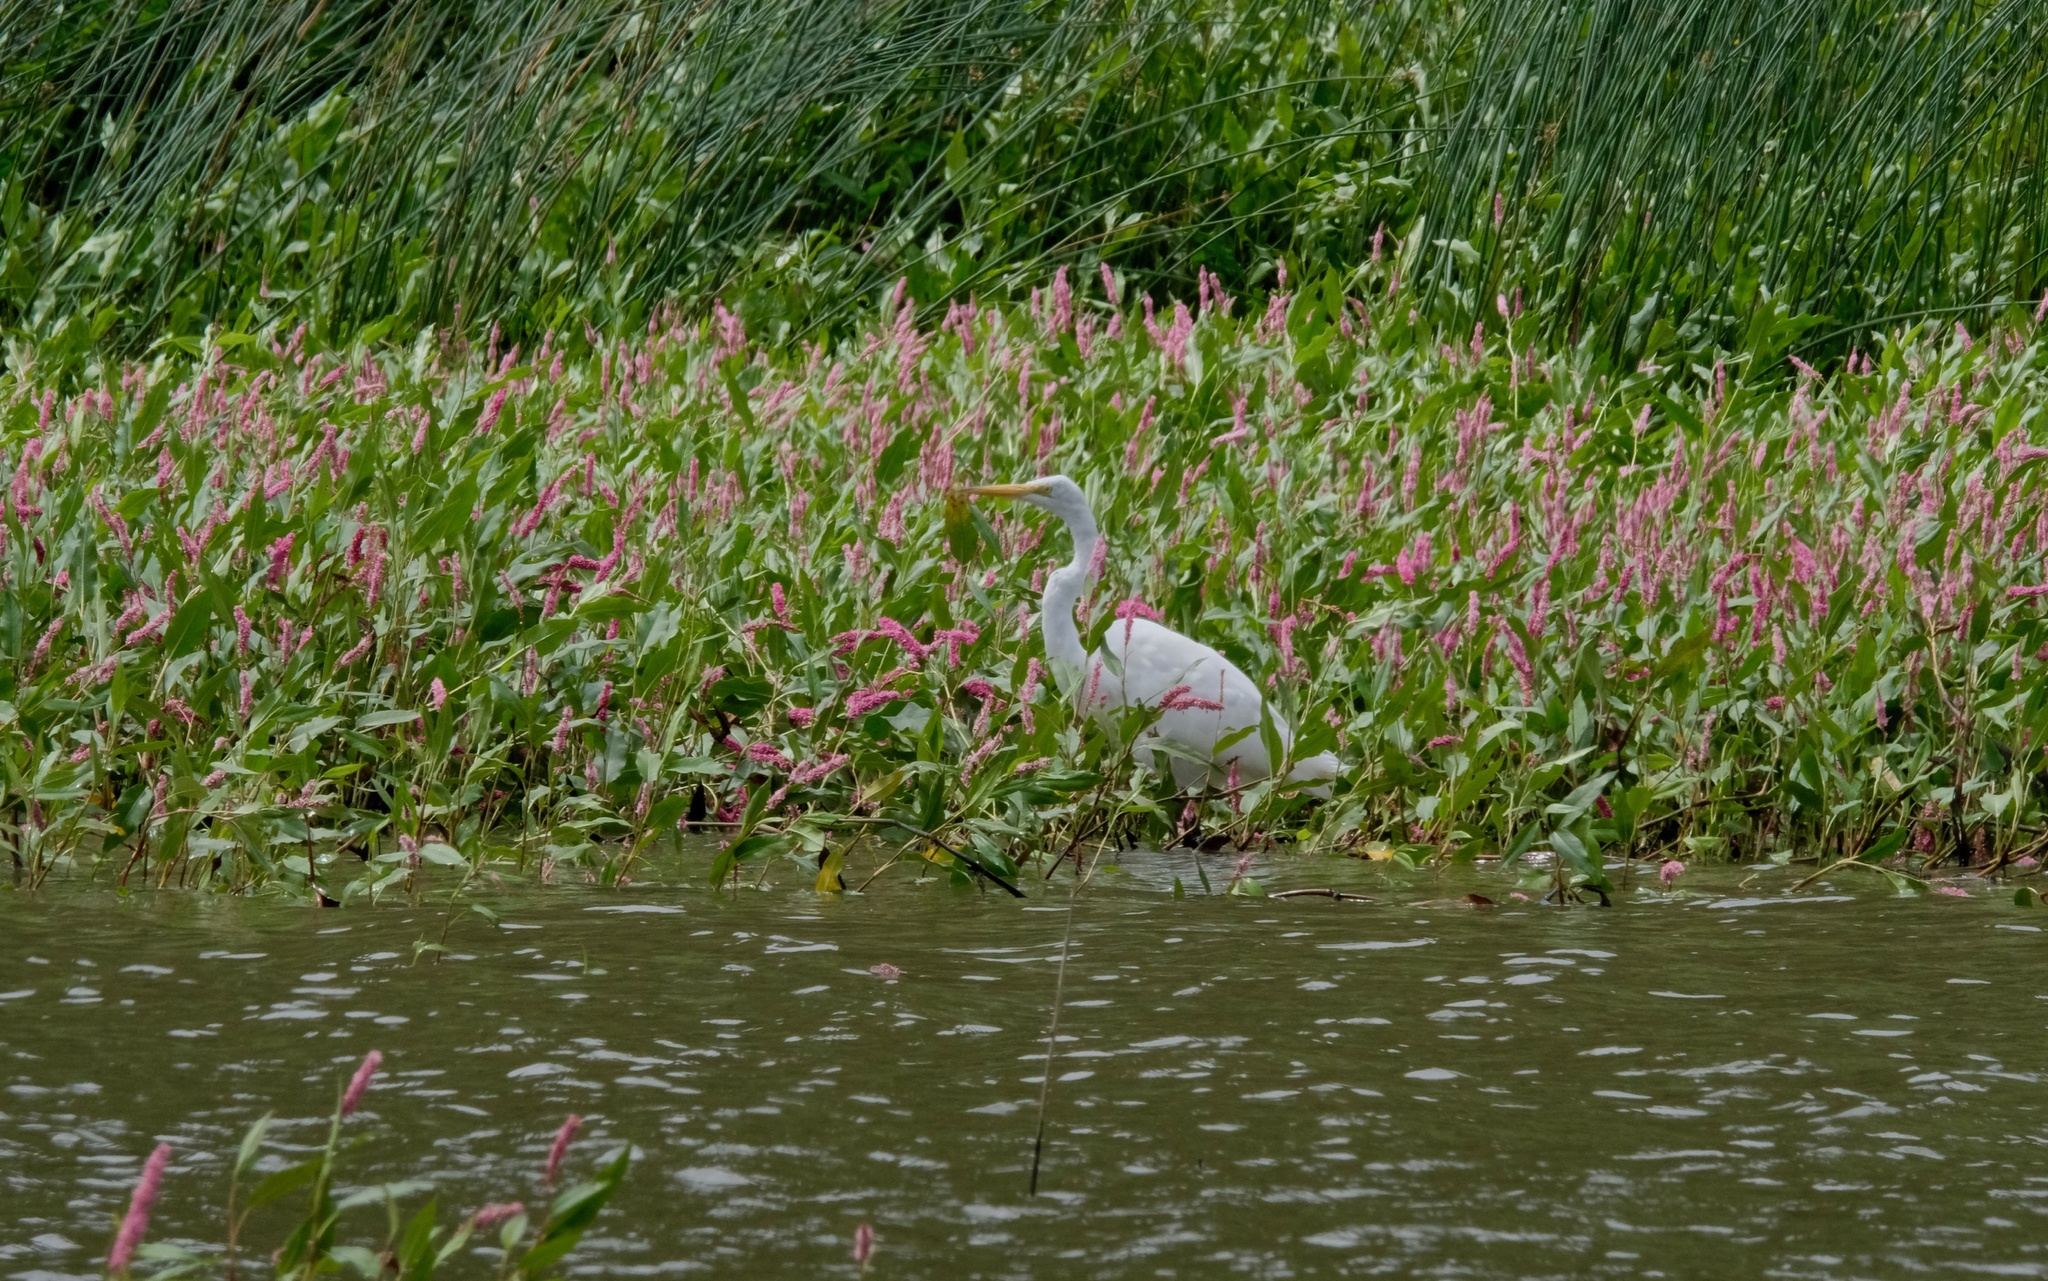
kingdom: Animalia
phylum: Chordata
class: Aves
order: Pelecaniformes
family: Ardeidae
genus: Ardea
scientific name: Ardea alba
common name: Great egret
